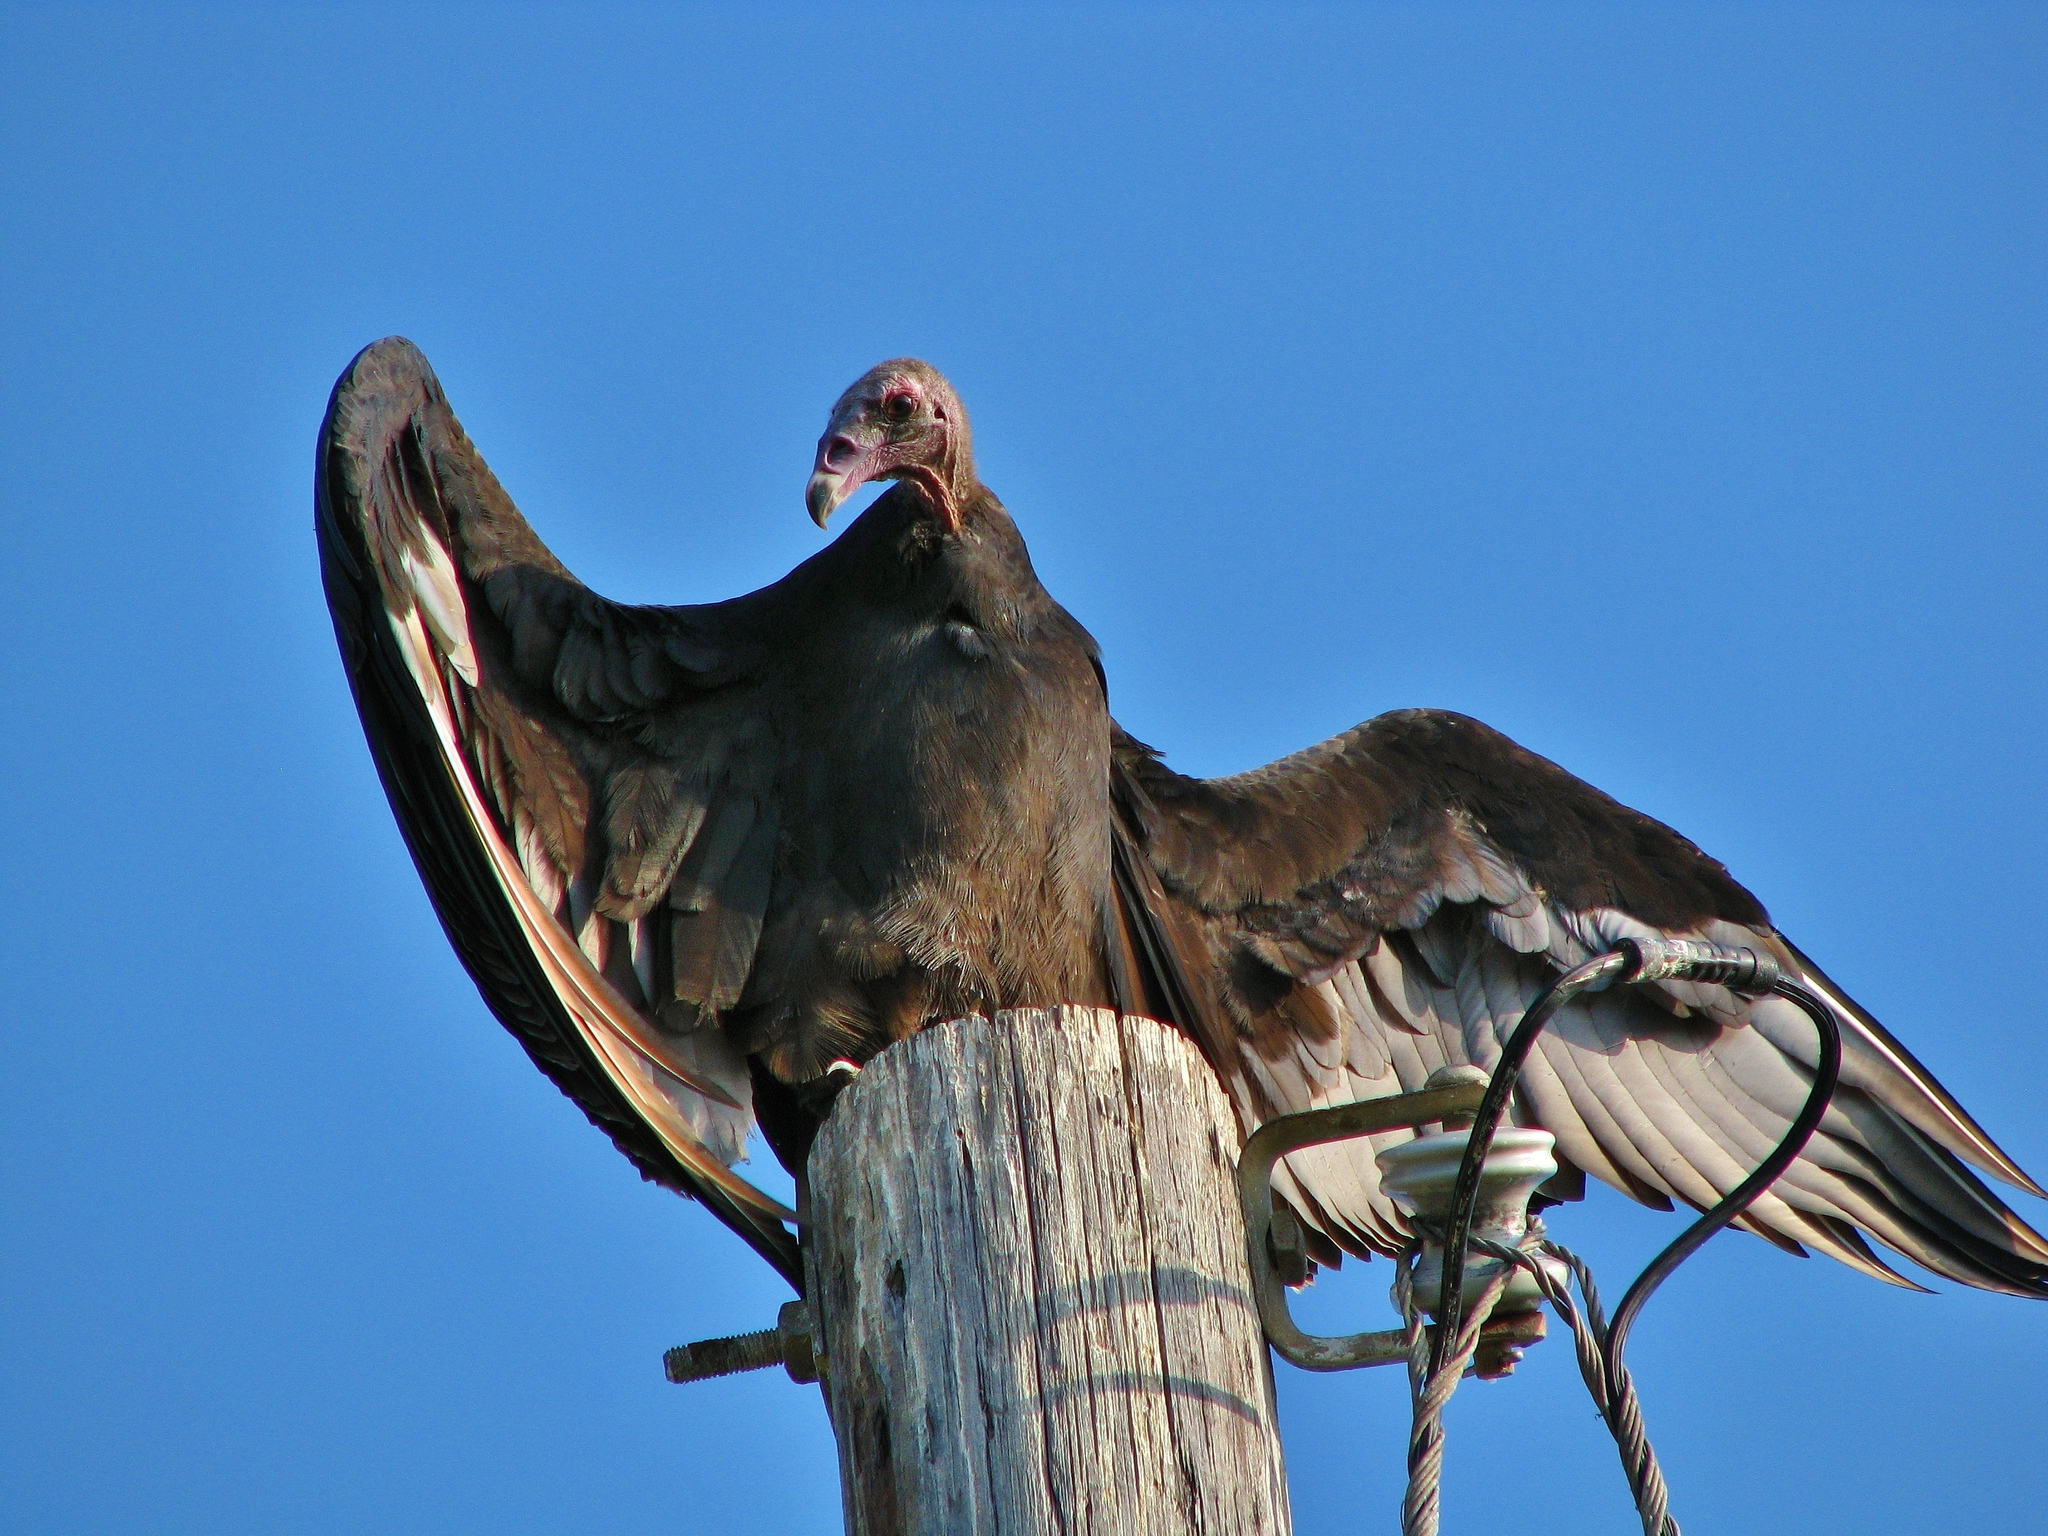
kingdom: Animalia
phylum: Chordata
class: Aves
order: Accipitriformes
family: Cathartidae
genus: Cathartes
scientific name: Cathartes aura
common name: Turkey vulture
